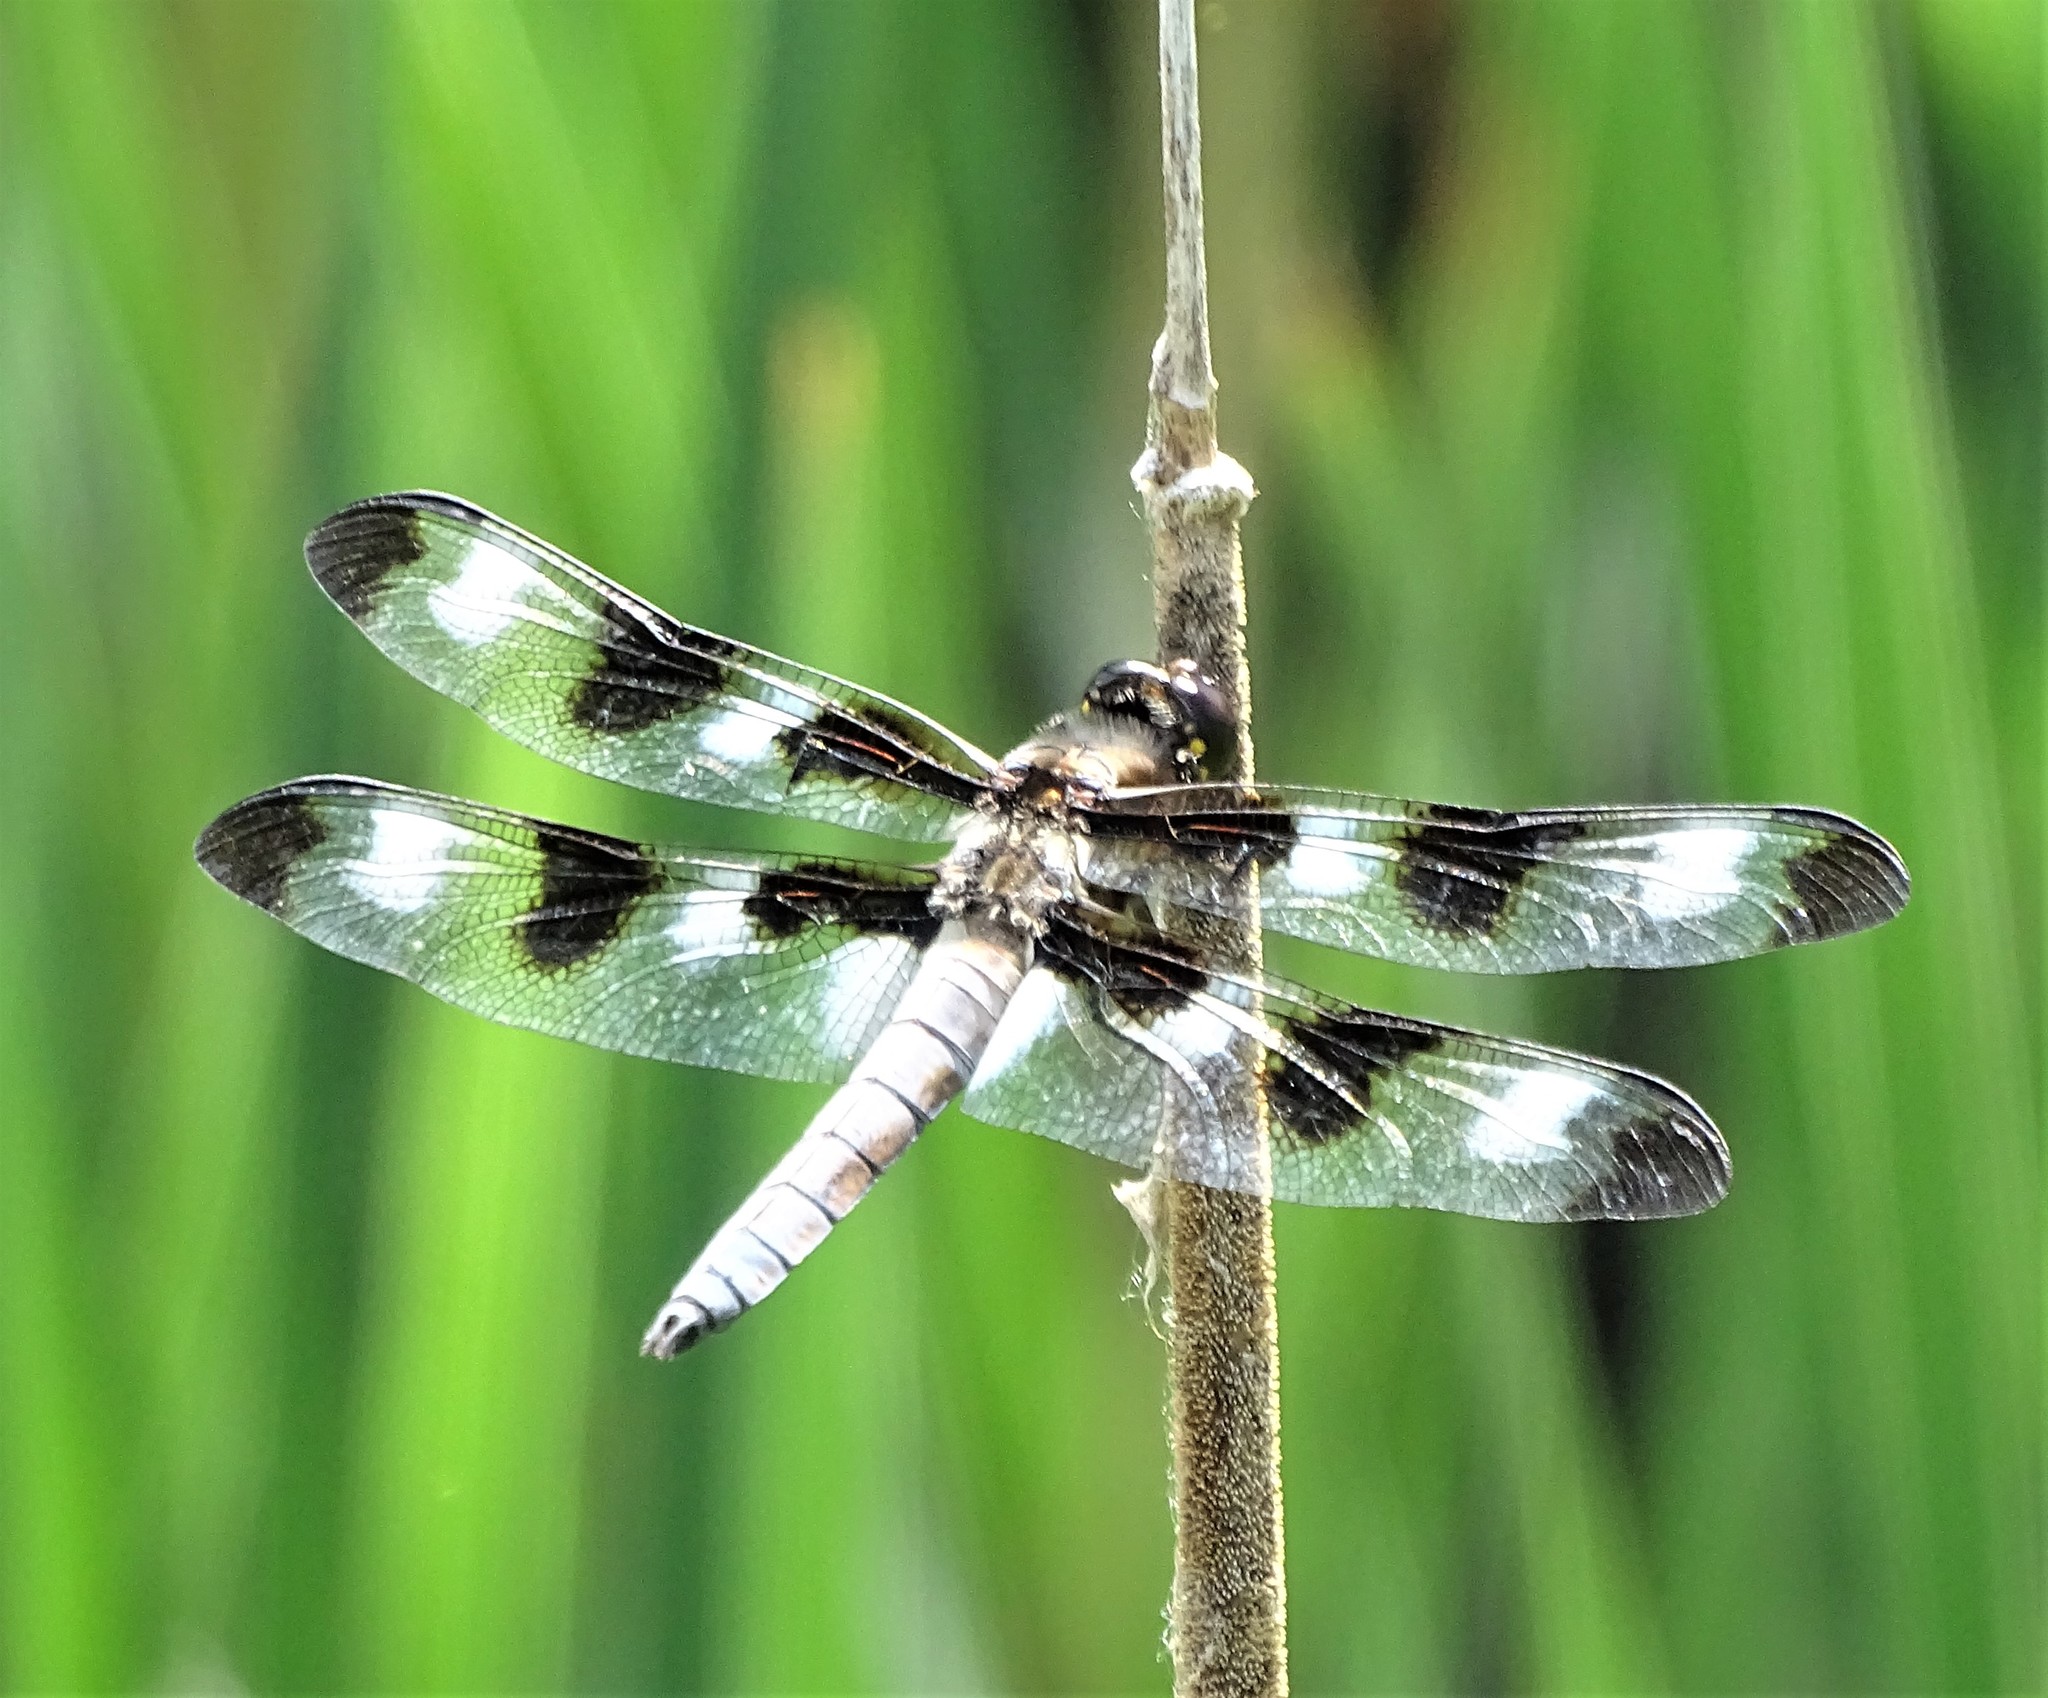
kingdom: Animalia
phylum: Arthropoda
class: Insecta
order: Odonata
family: Libellulidae
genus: Libellula
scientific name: Libellula pulchella
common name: Twelve-spotted skimmer
